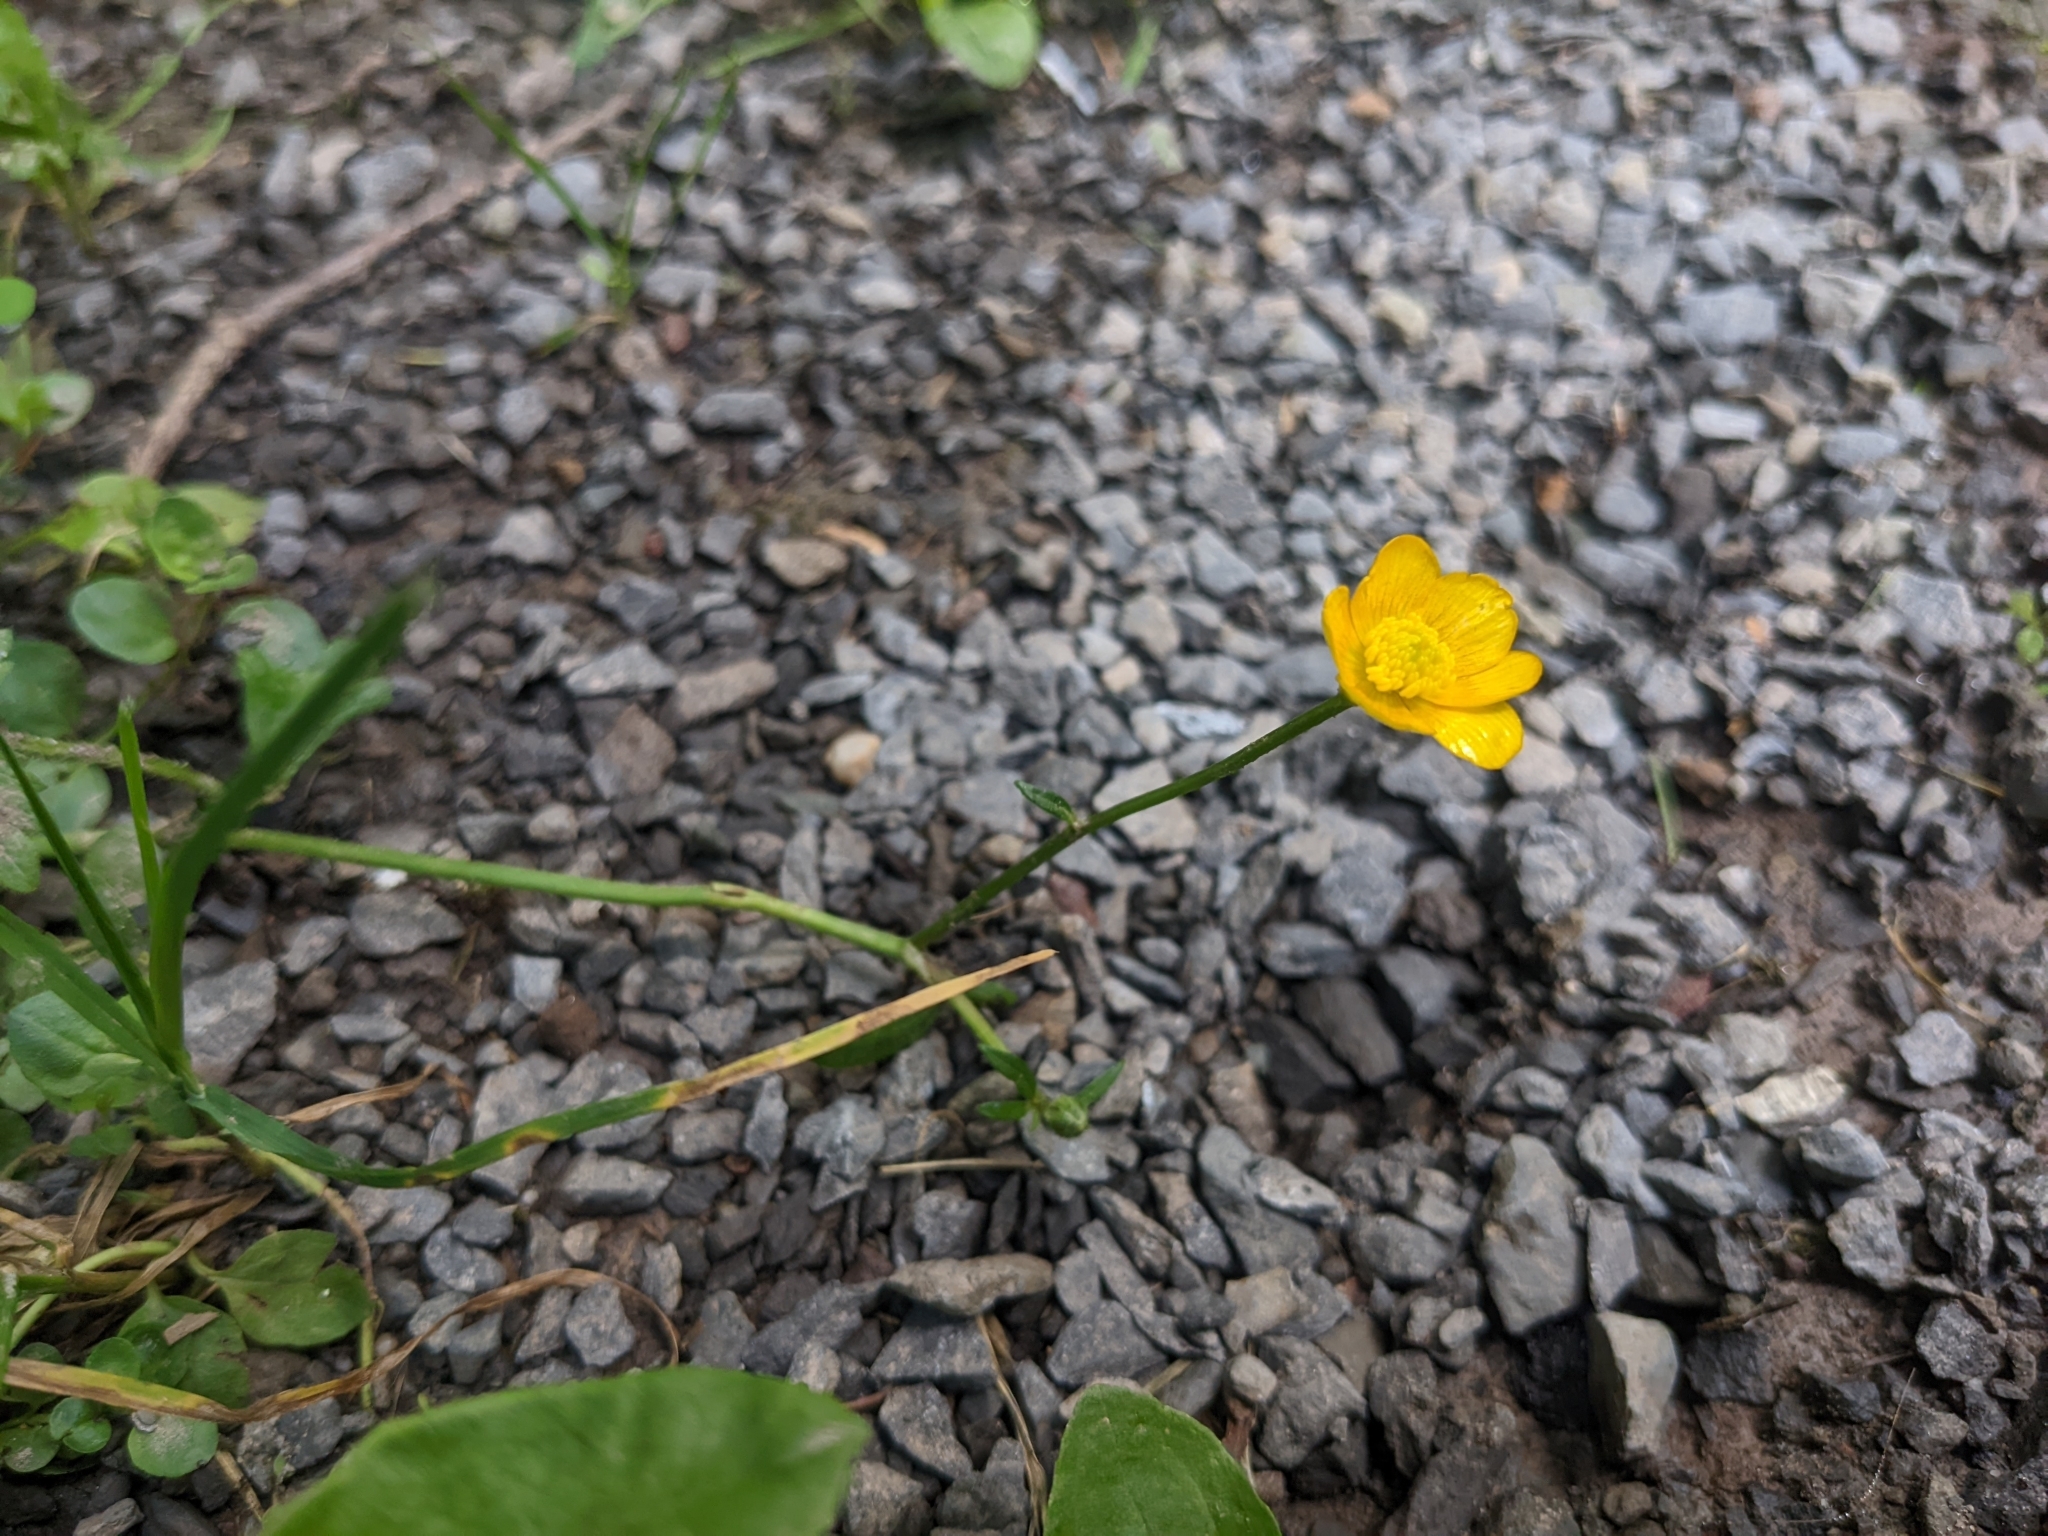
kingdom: Plantae
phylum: Tracheophyta
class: Magnoliopsida
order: Ranunculales
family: Ranunculaceae
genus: Ranunculus
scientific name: Ranunculus repens
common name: Creeping buttercup
